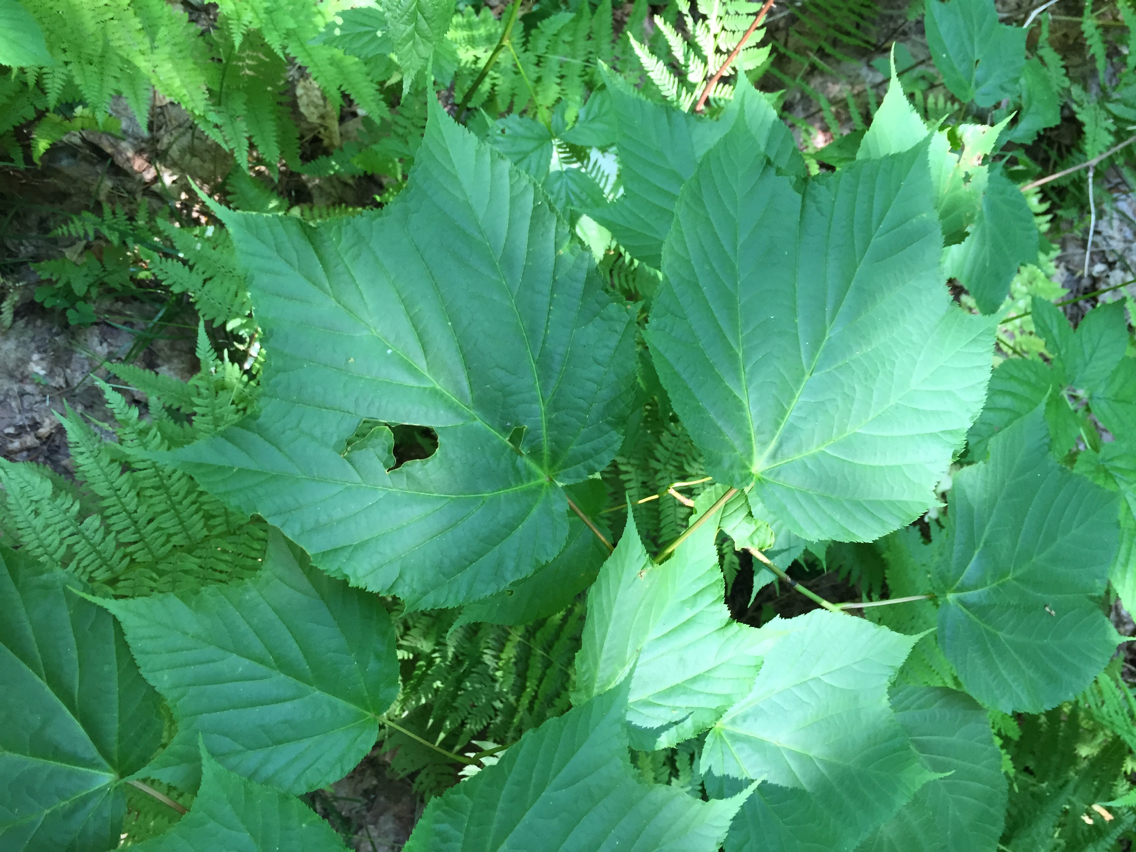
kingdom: Plantae
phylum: Tracheophyta
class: Magnoliopsida
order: Sapindales
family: Sapindaceae
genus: Acer
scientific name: Acer pensylvanicum
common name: Moosewood
